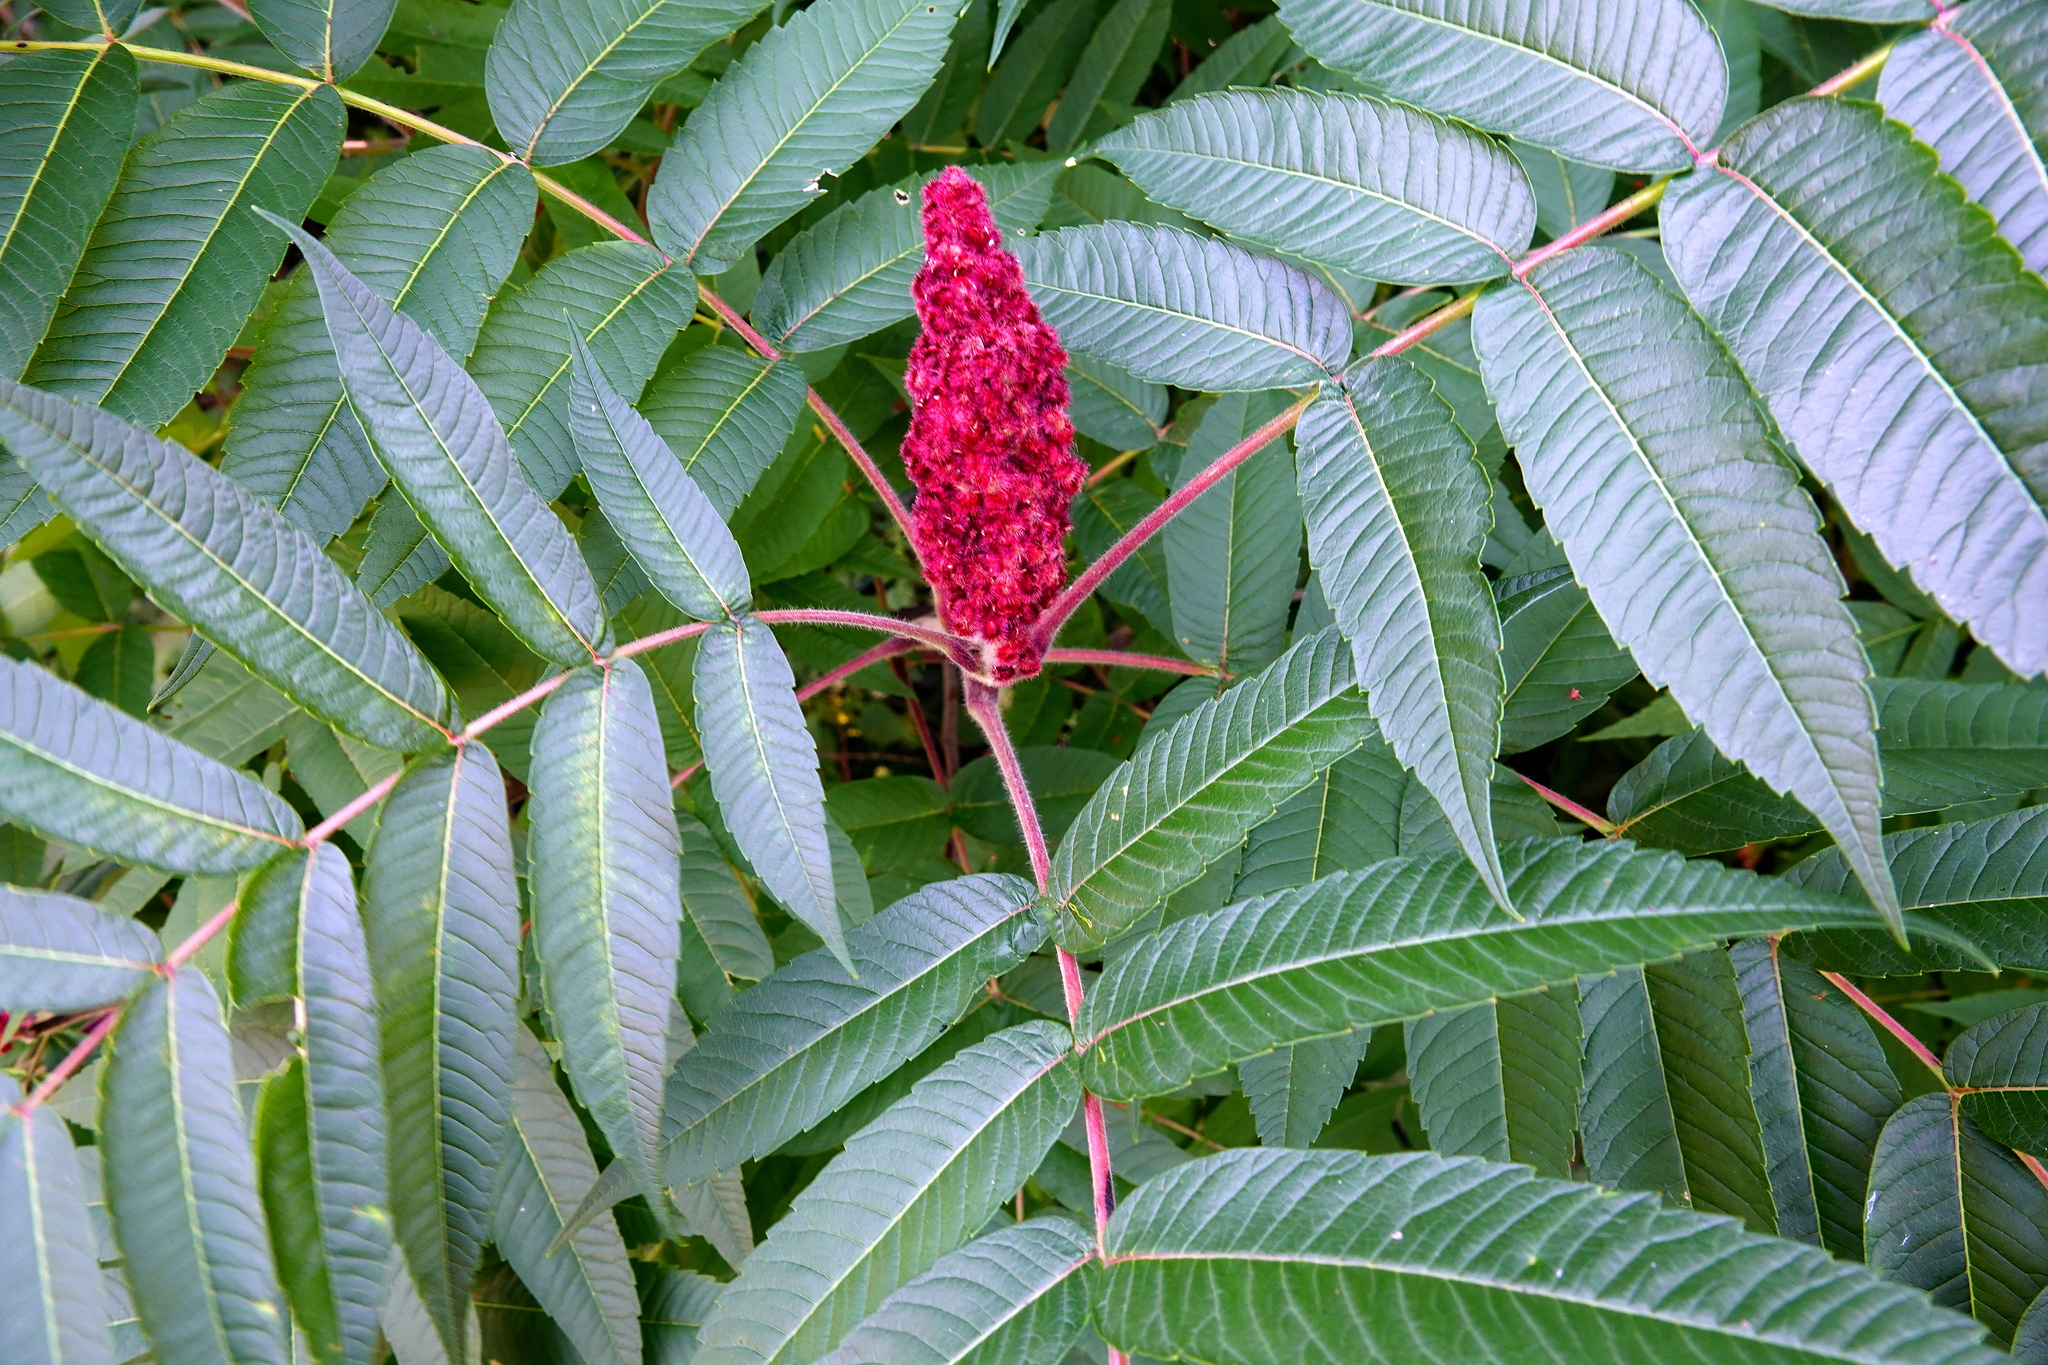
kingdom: Plantae
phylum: Tracheophyta
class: Magnoliopsida
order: Sapindales
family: Anacardiaceae
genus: Rhus
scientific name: Rhus typhina
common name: Staghorn sumac
